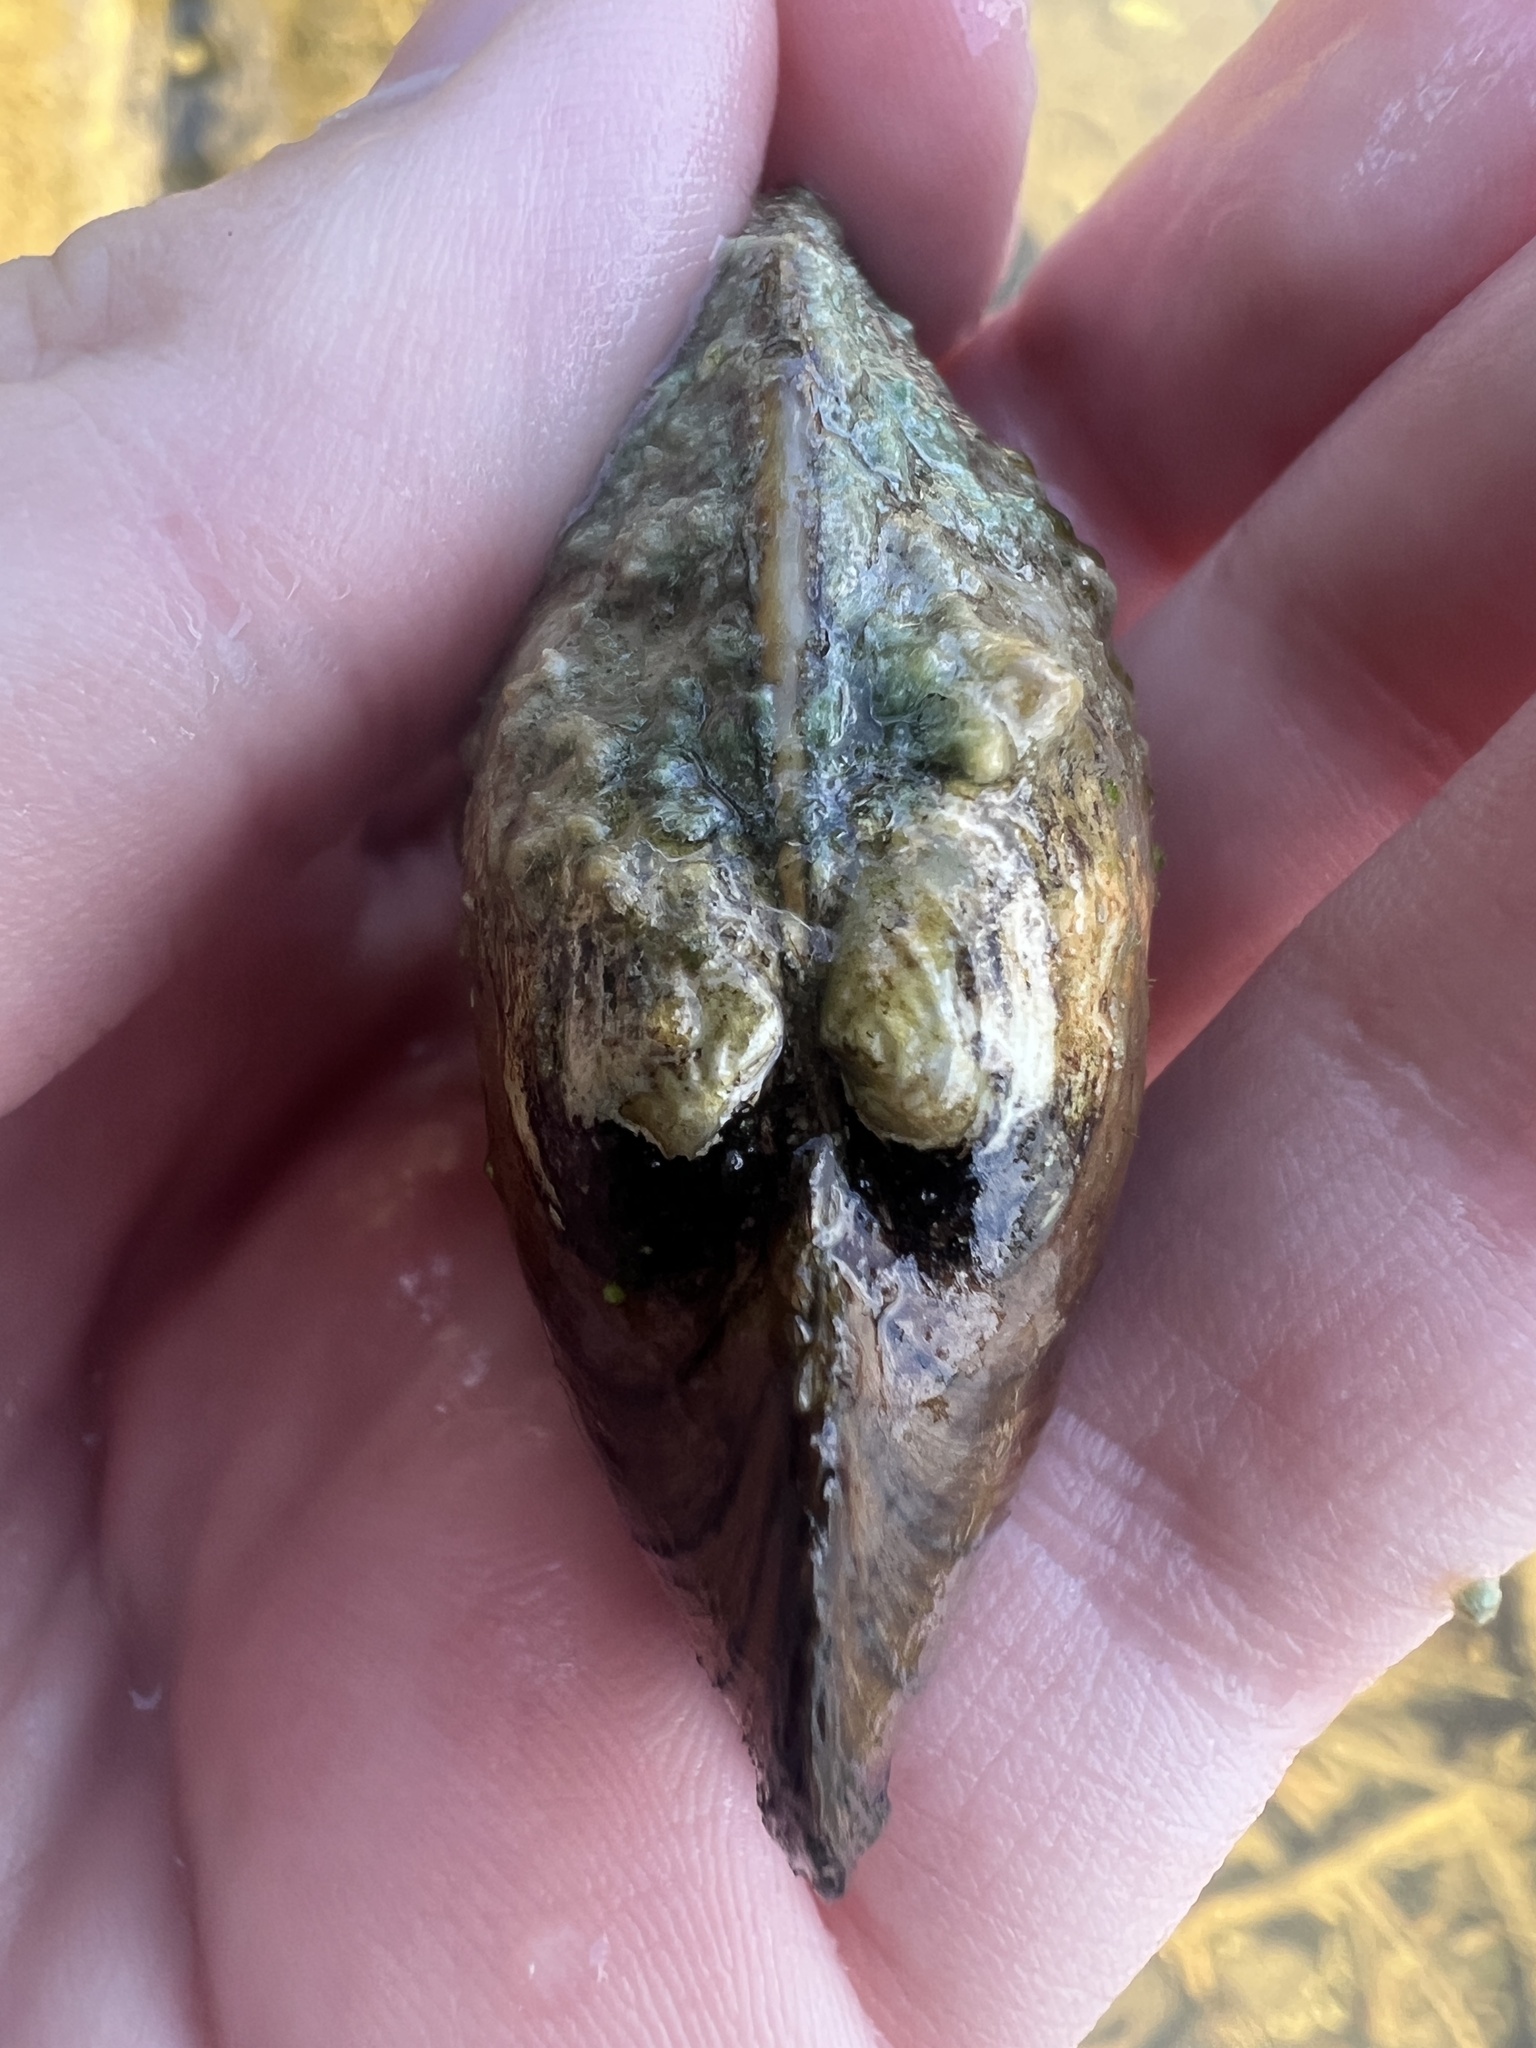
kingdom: Animalia
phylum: Mollusca
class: Bivalvia
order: Unionida
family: Unionidae
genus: Pyganodon
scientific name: Pyganodon grandis
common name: Giant floater
